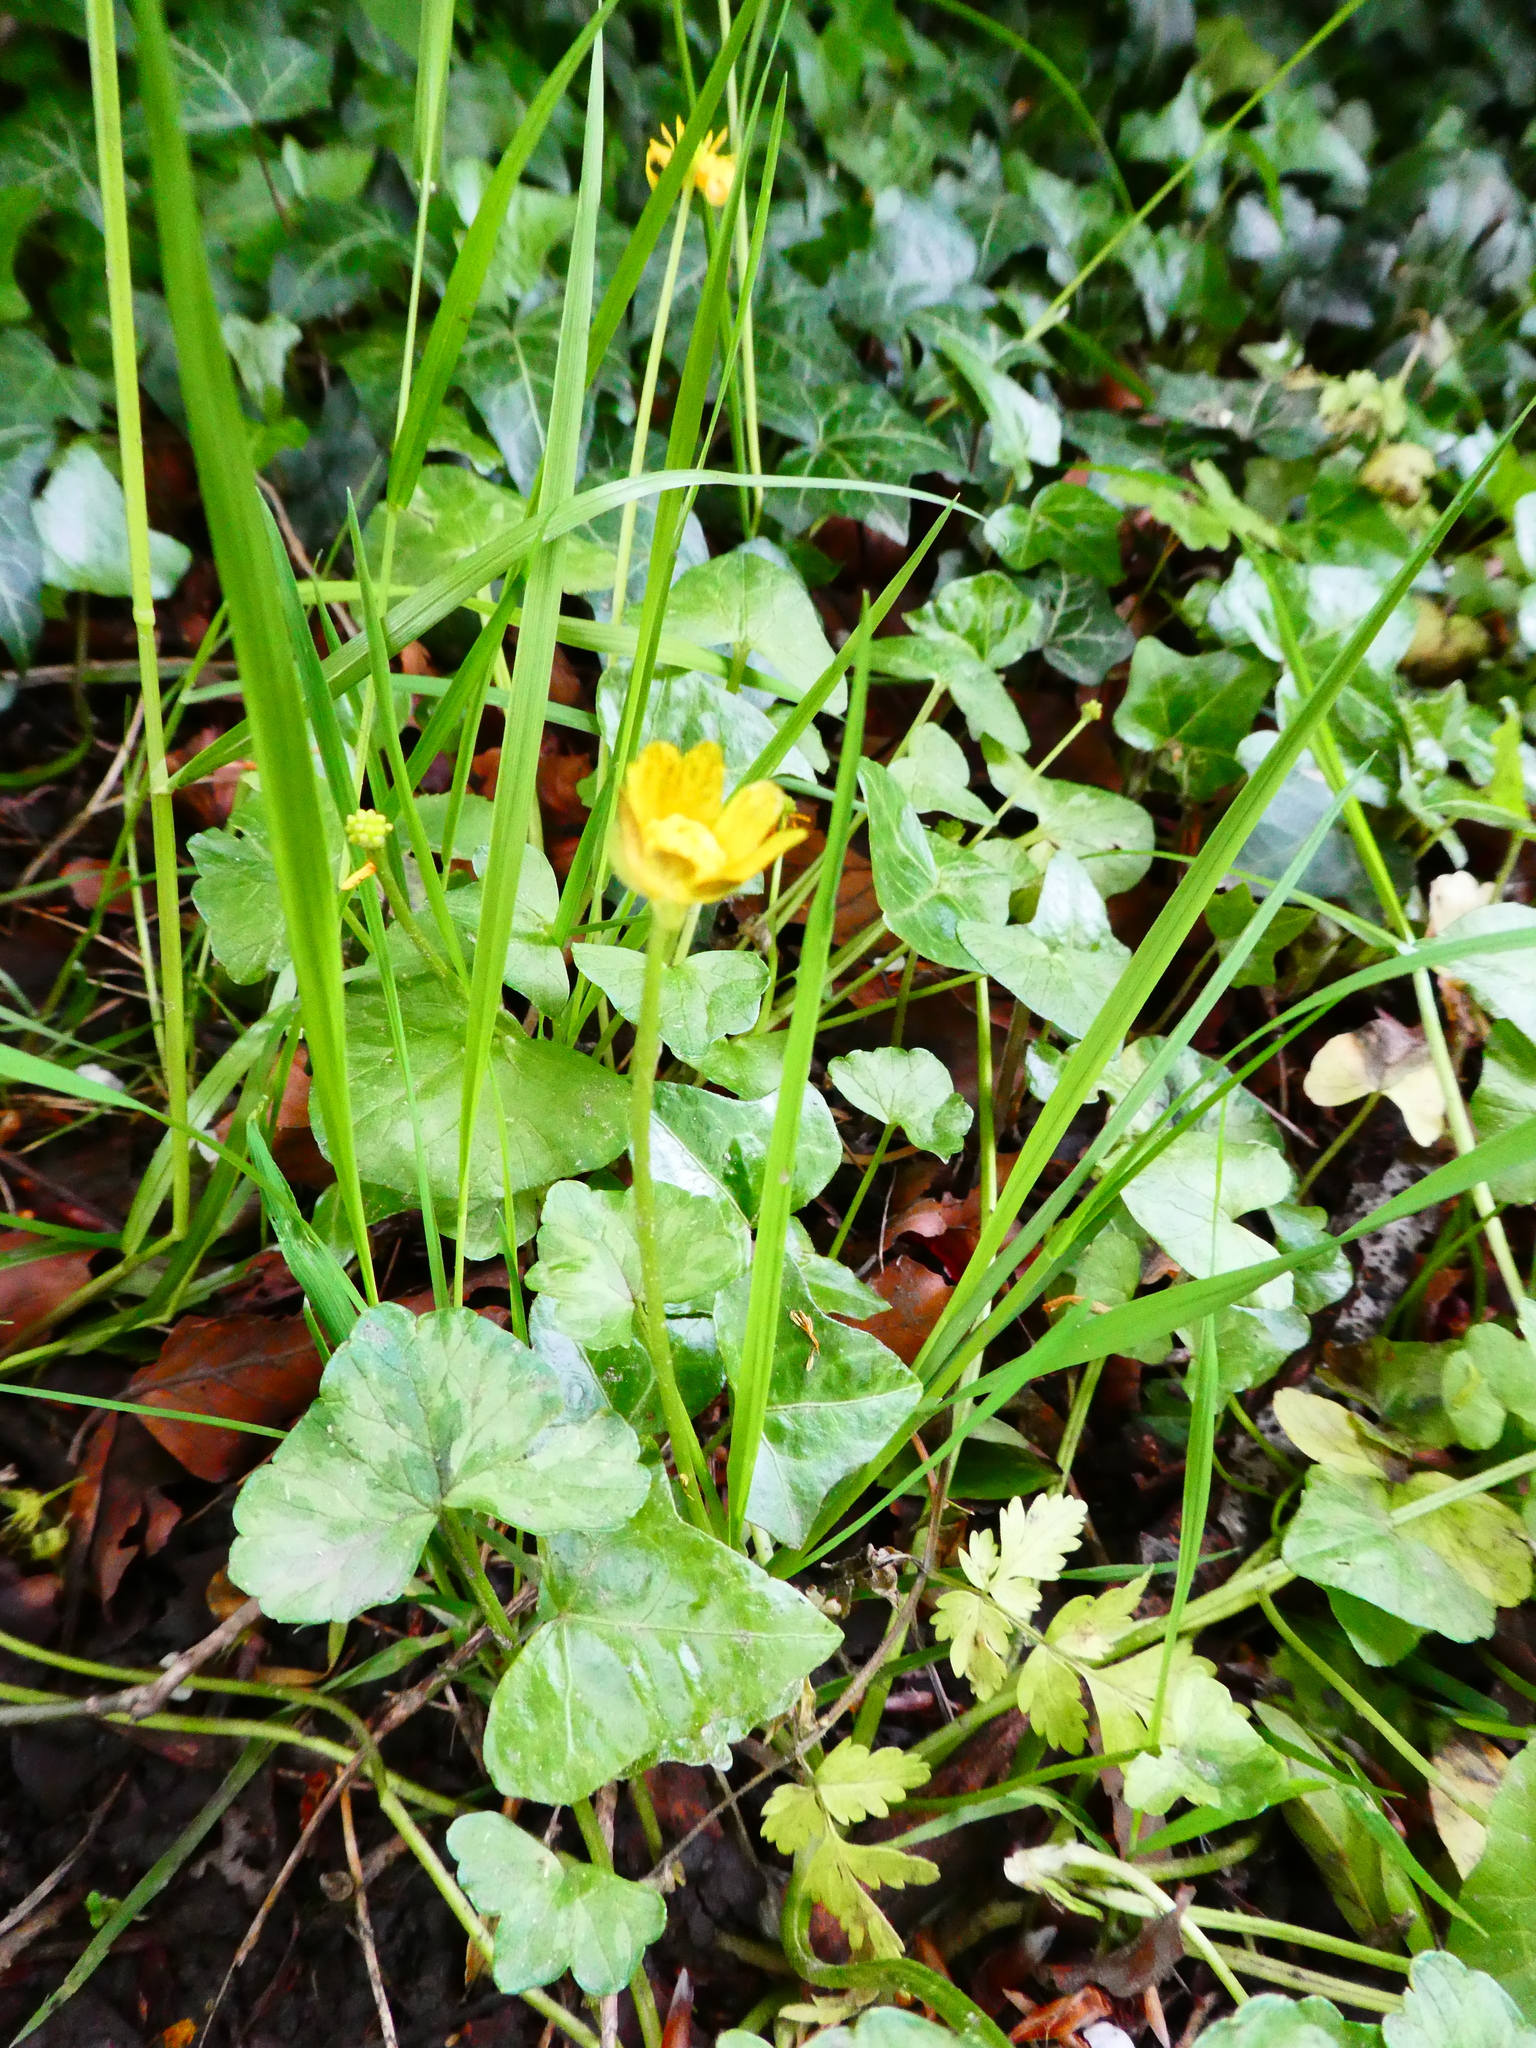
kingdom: Plantae
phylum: Tracheophyta
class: Magnoliopsida
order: Ranunculales
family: Ranunculaceae
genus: Ficaria
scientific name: Ficaria verna
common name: Lesser celandine
